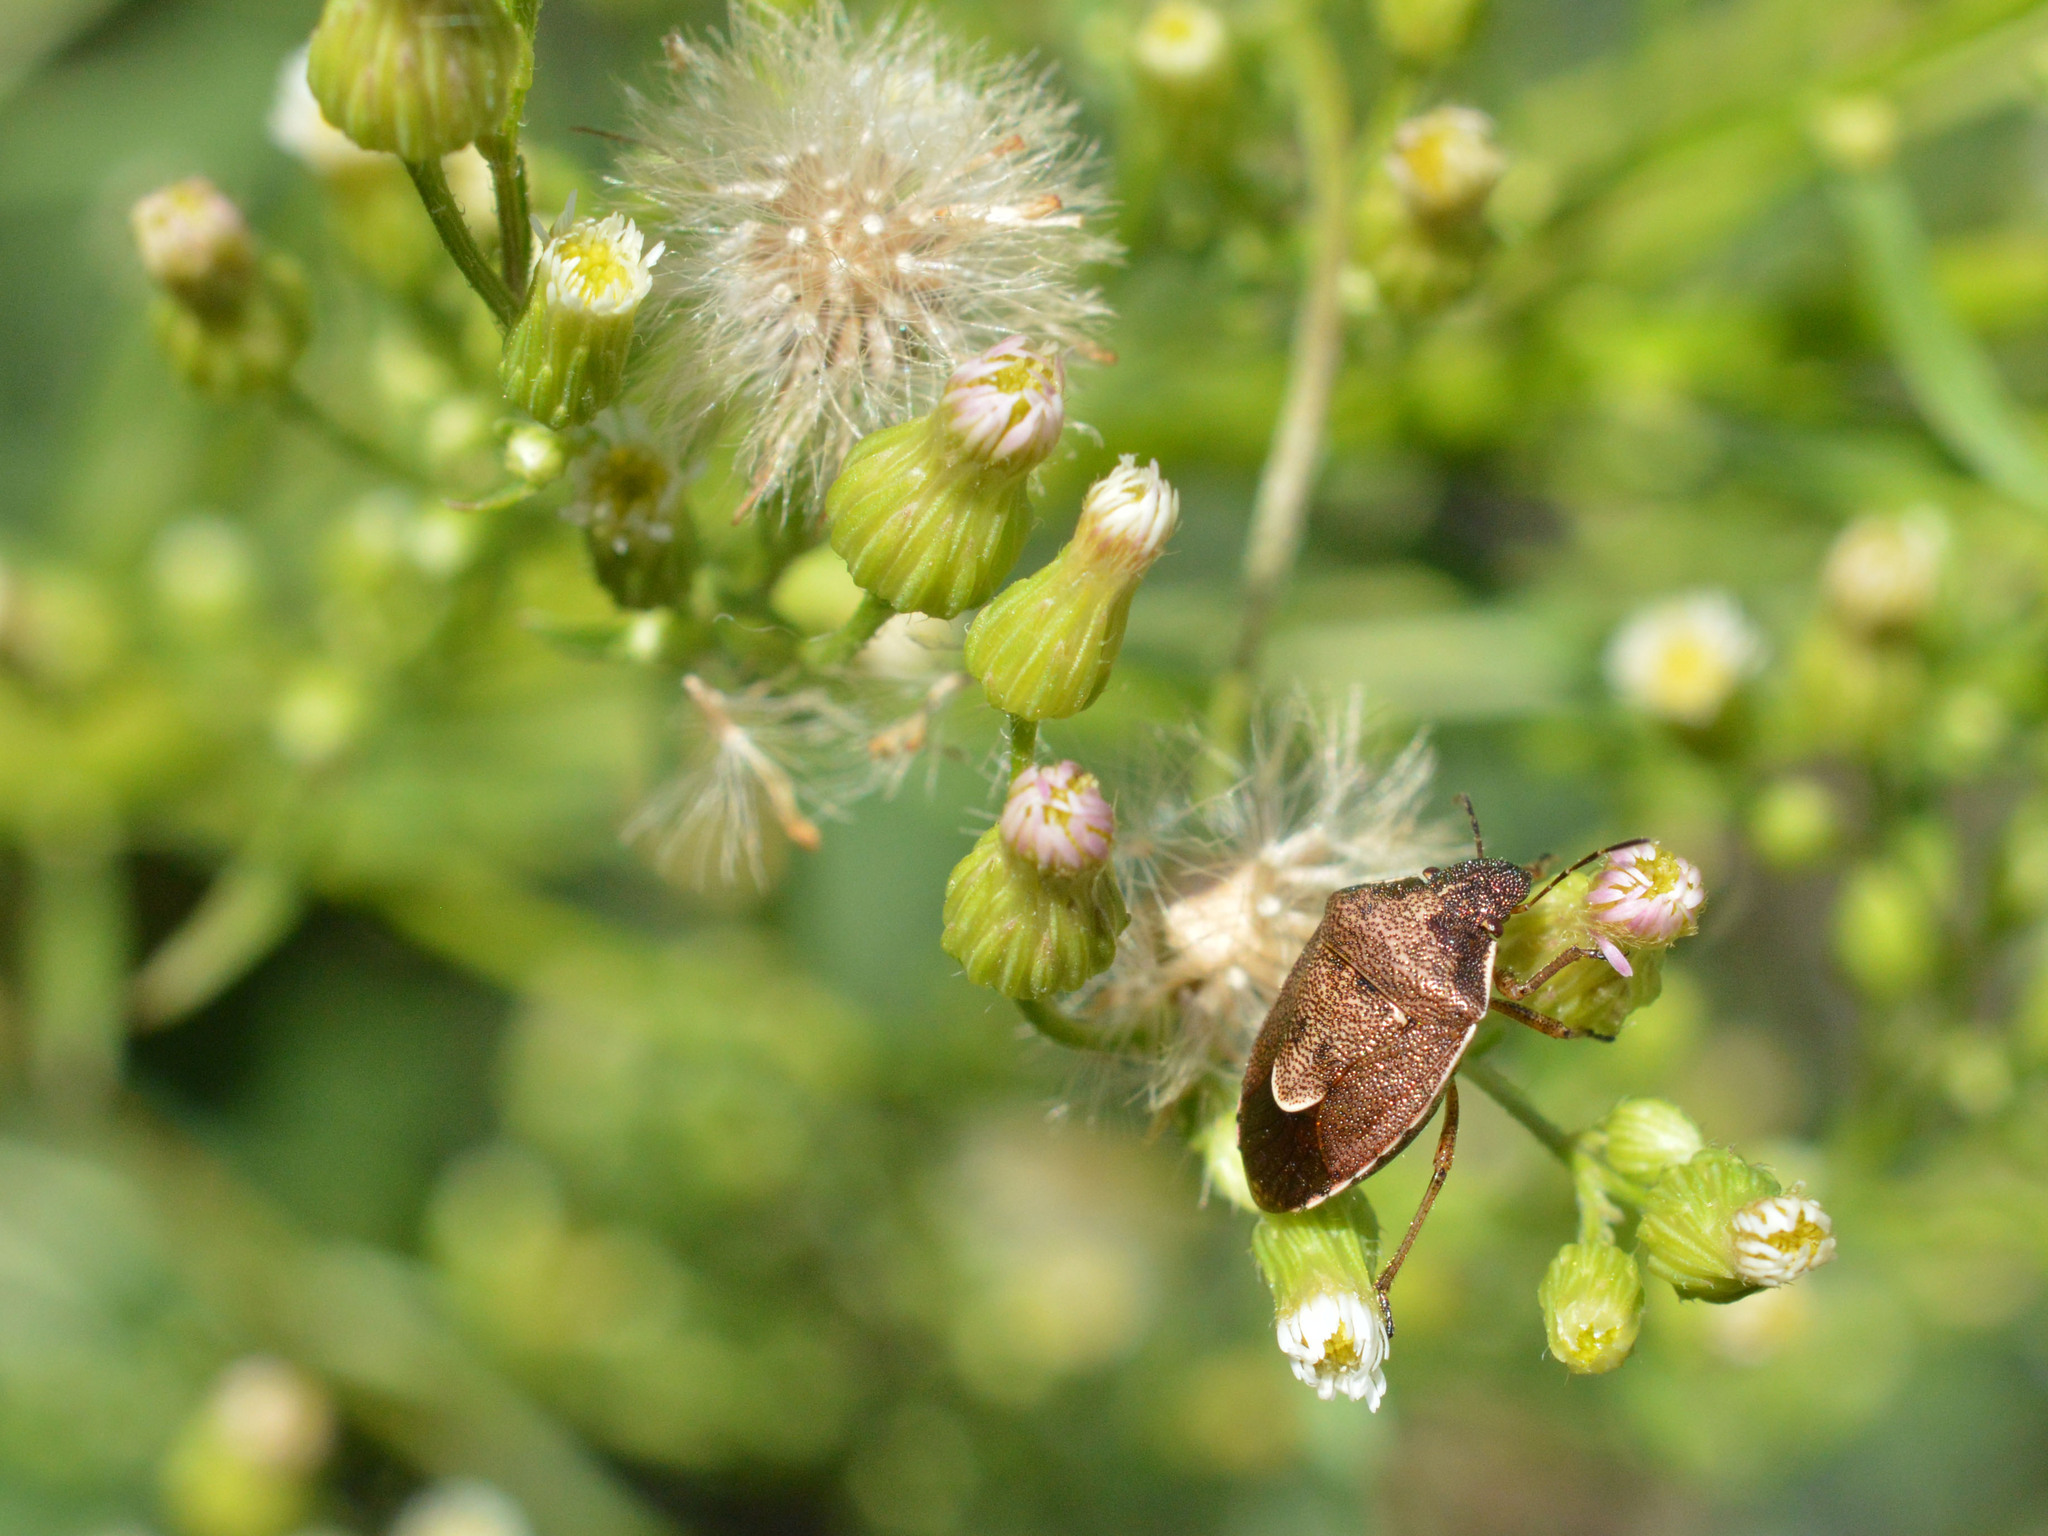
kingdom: Animalia
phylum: Arthropoda
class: Insecta
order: Hemiptera
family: Pentatomidae
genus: Rubiconia
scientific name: Rubiconia intermedia
